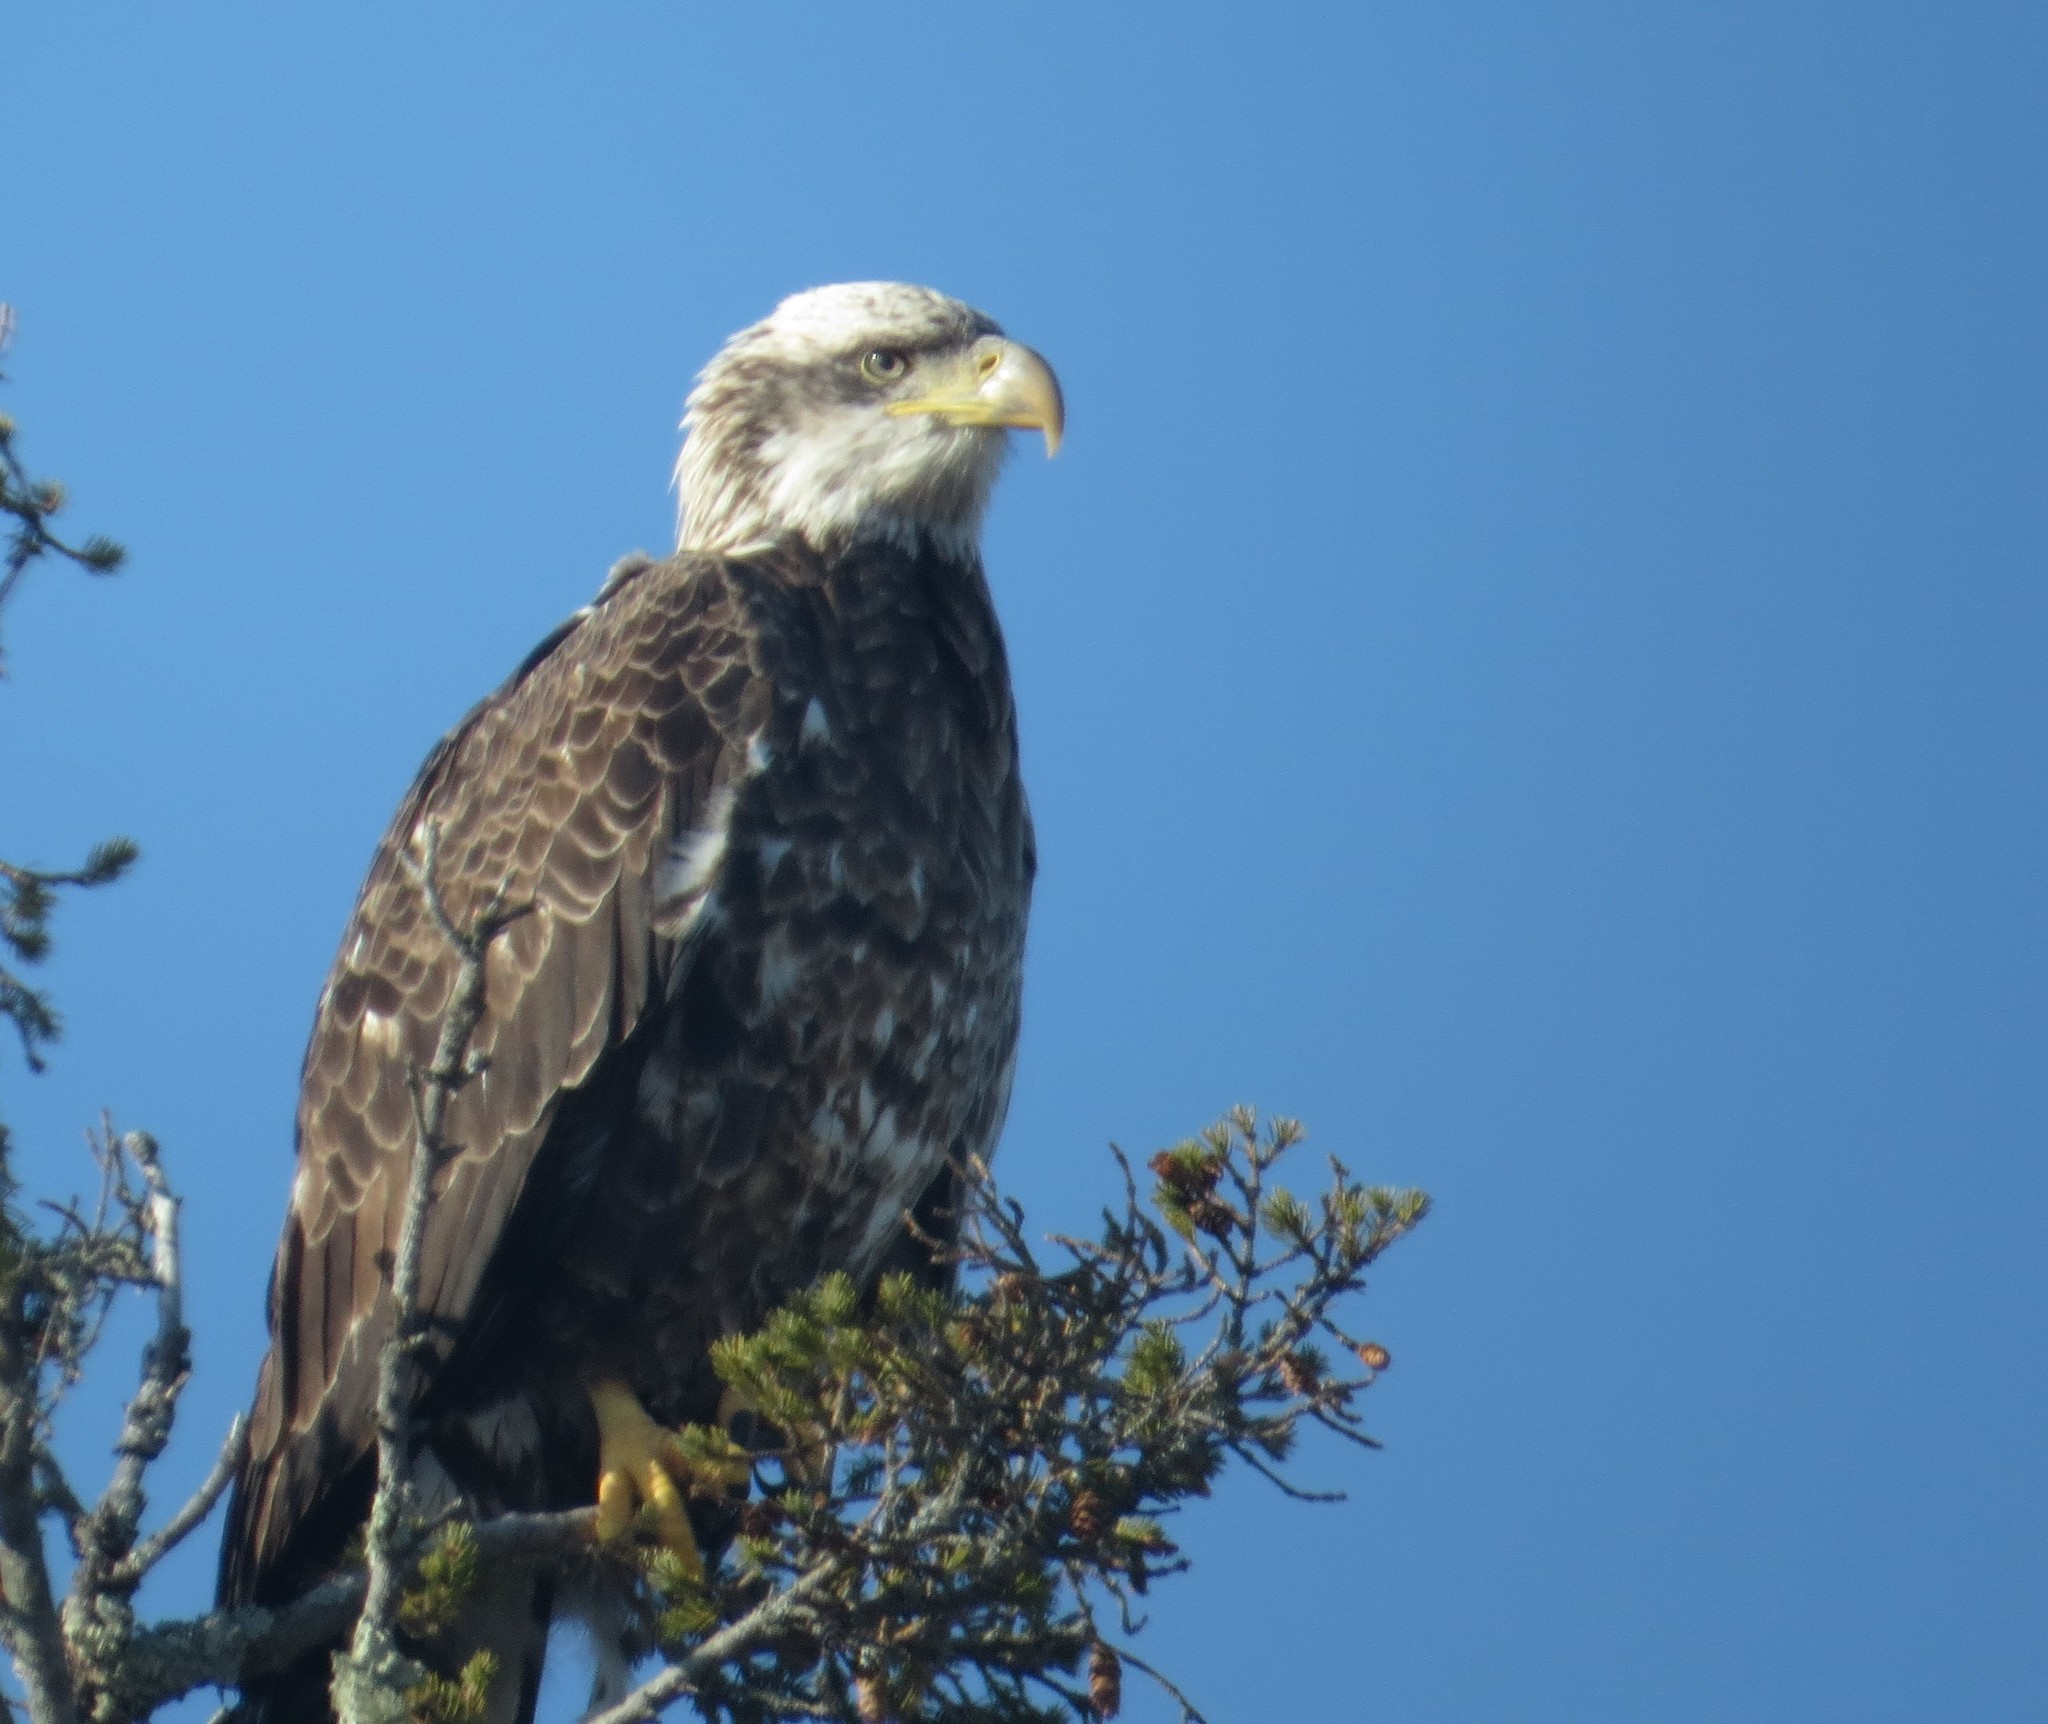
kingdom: Animalia
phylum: Chordata
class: Aves
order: Accipitriformes
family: Accipitridae
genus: Haliaeetus
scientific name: Haliaeetus leucocephalus
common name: Bald eagle
